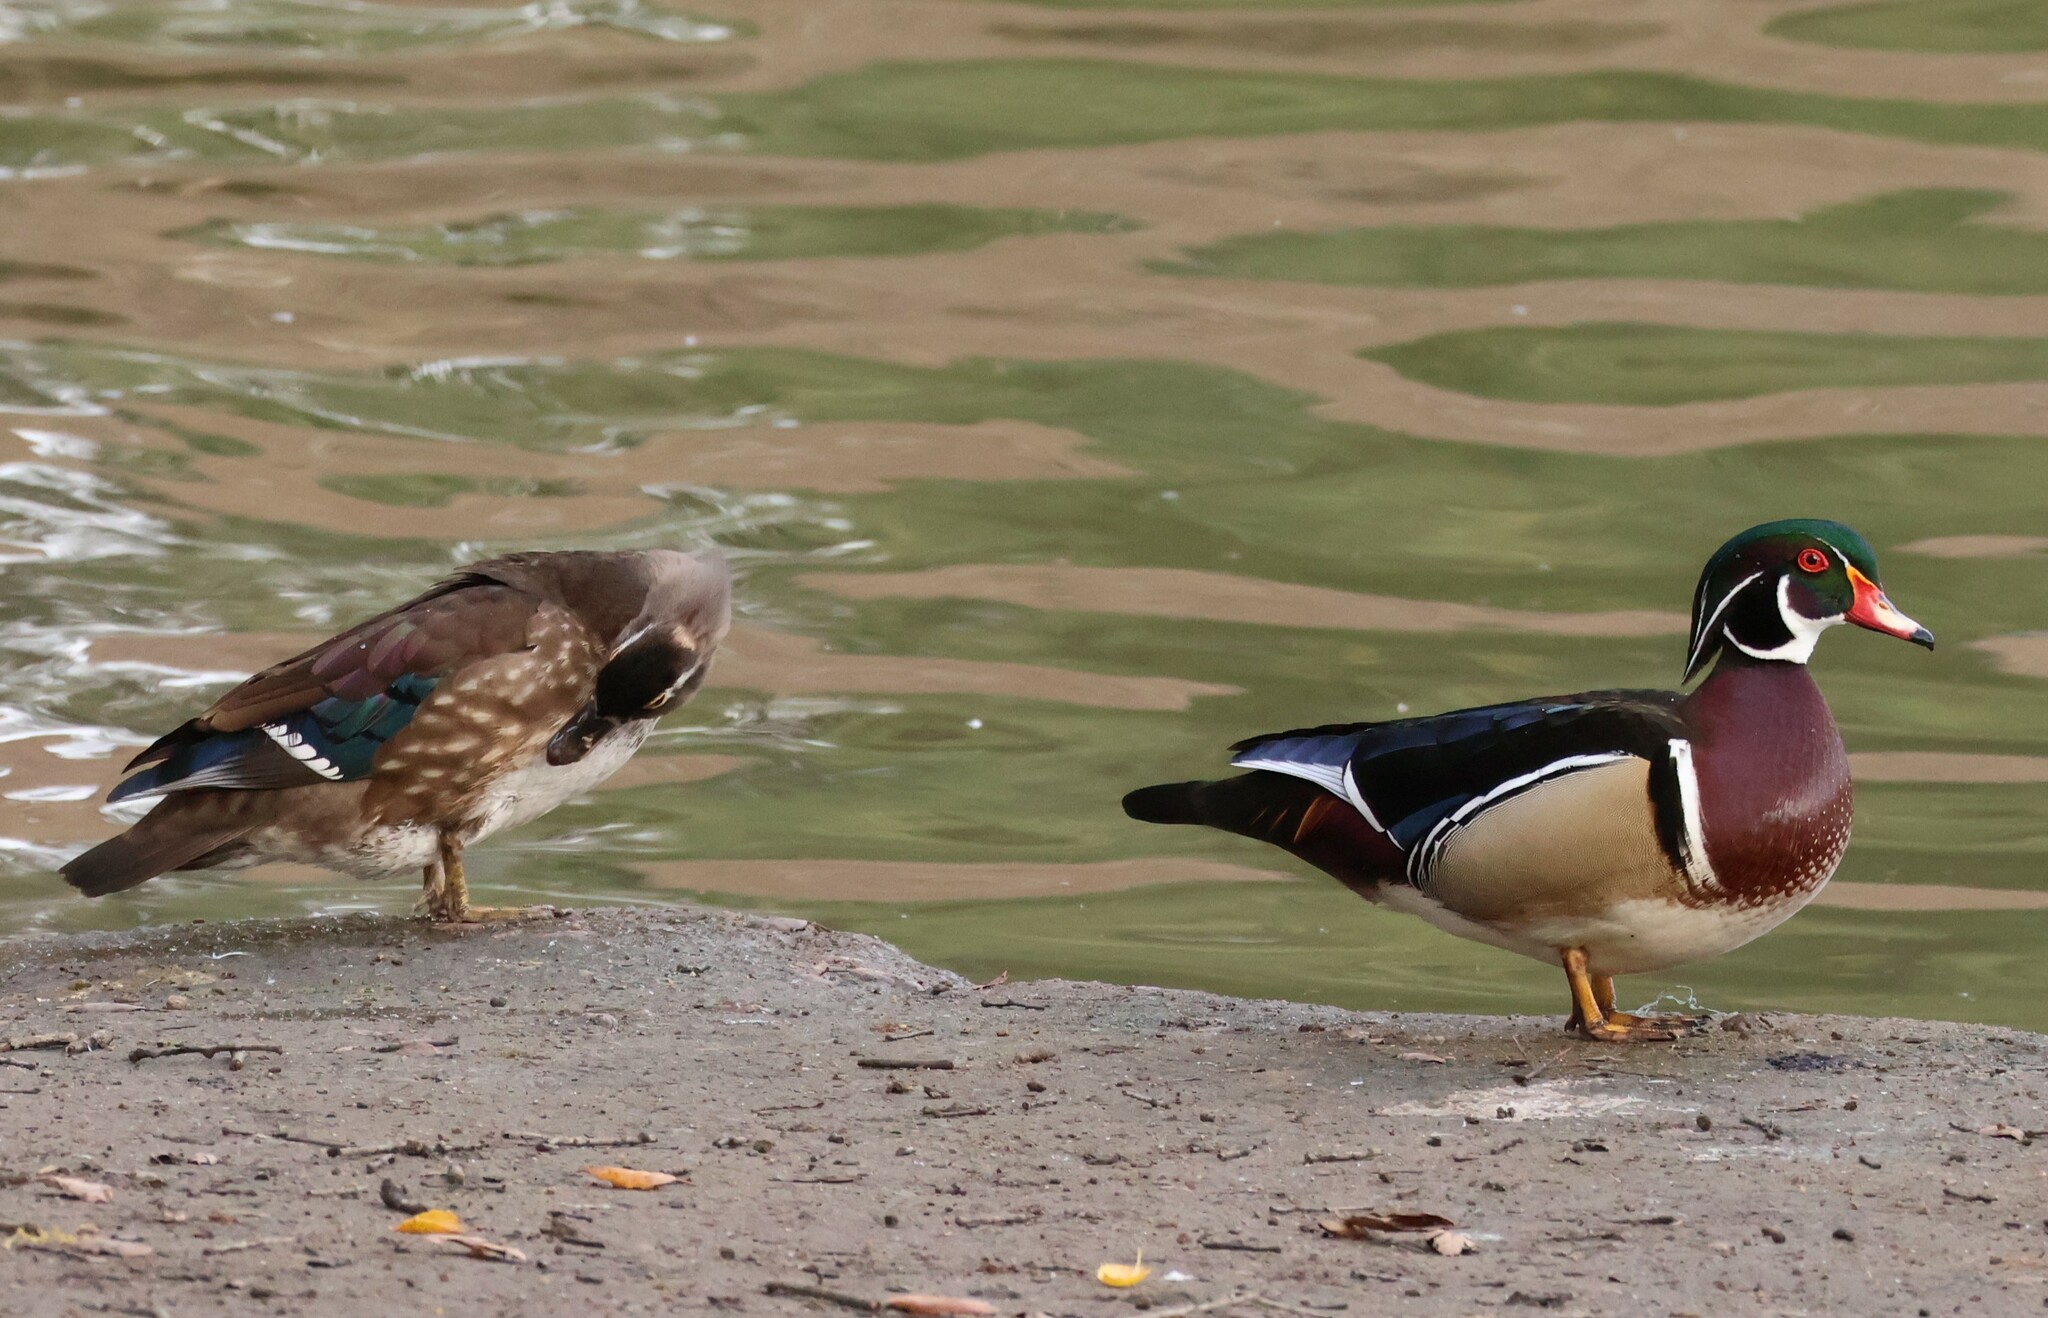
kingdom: Animalia
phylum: Chordata
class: Aves
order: Anseriformes
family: Anatidae
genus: Aix
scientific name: Aix sponsa
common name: Wood duck
